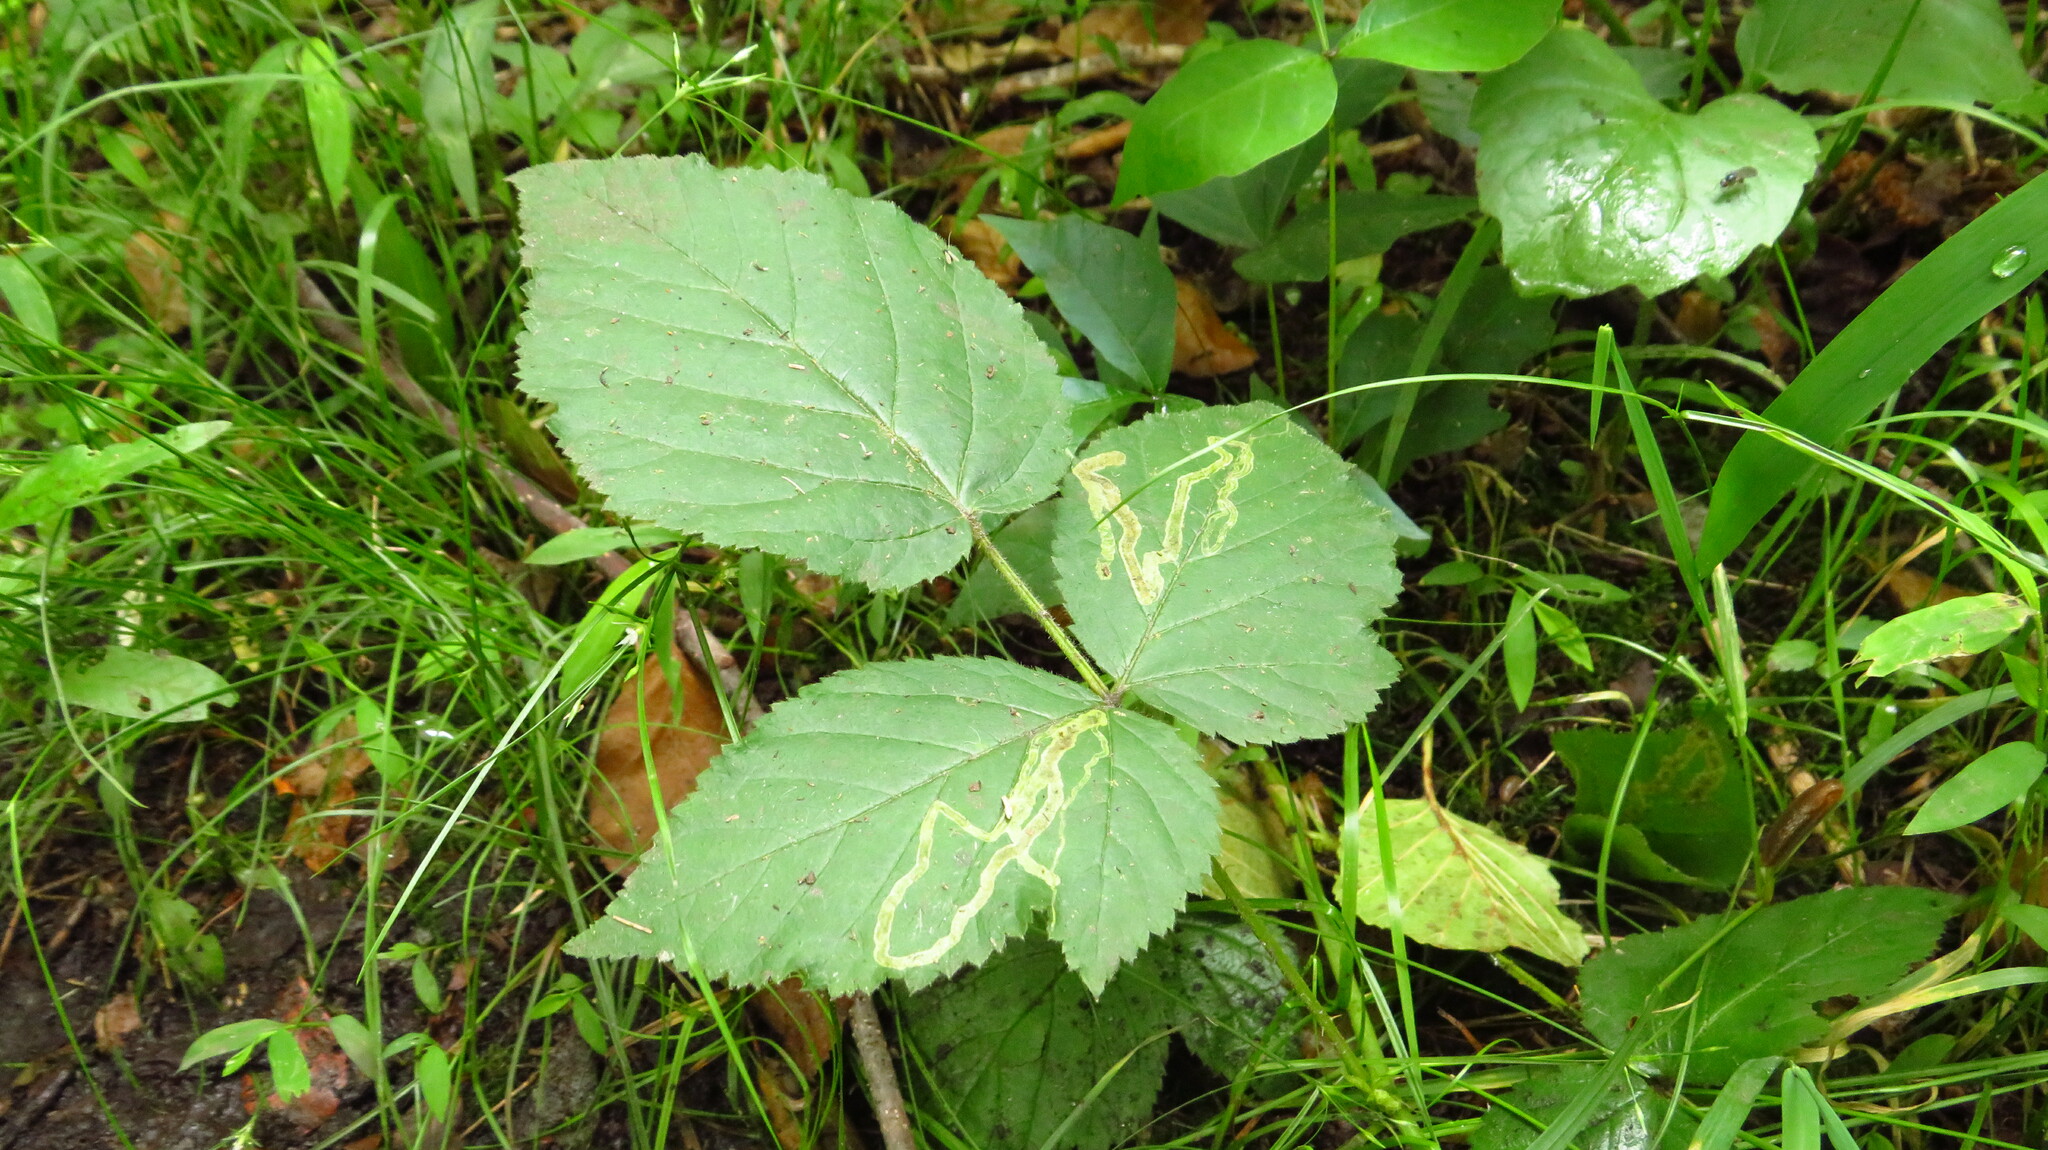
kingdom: Animalia
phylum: Arthropoda
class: Insecta
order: Diptera
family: Agromyzidae
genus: Agromyza
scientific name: Agromyza vockerothi
